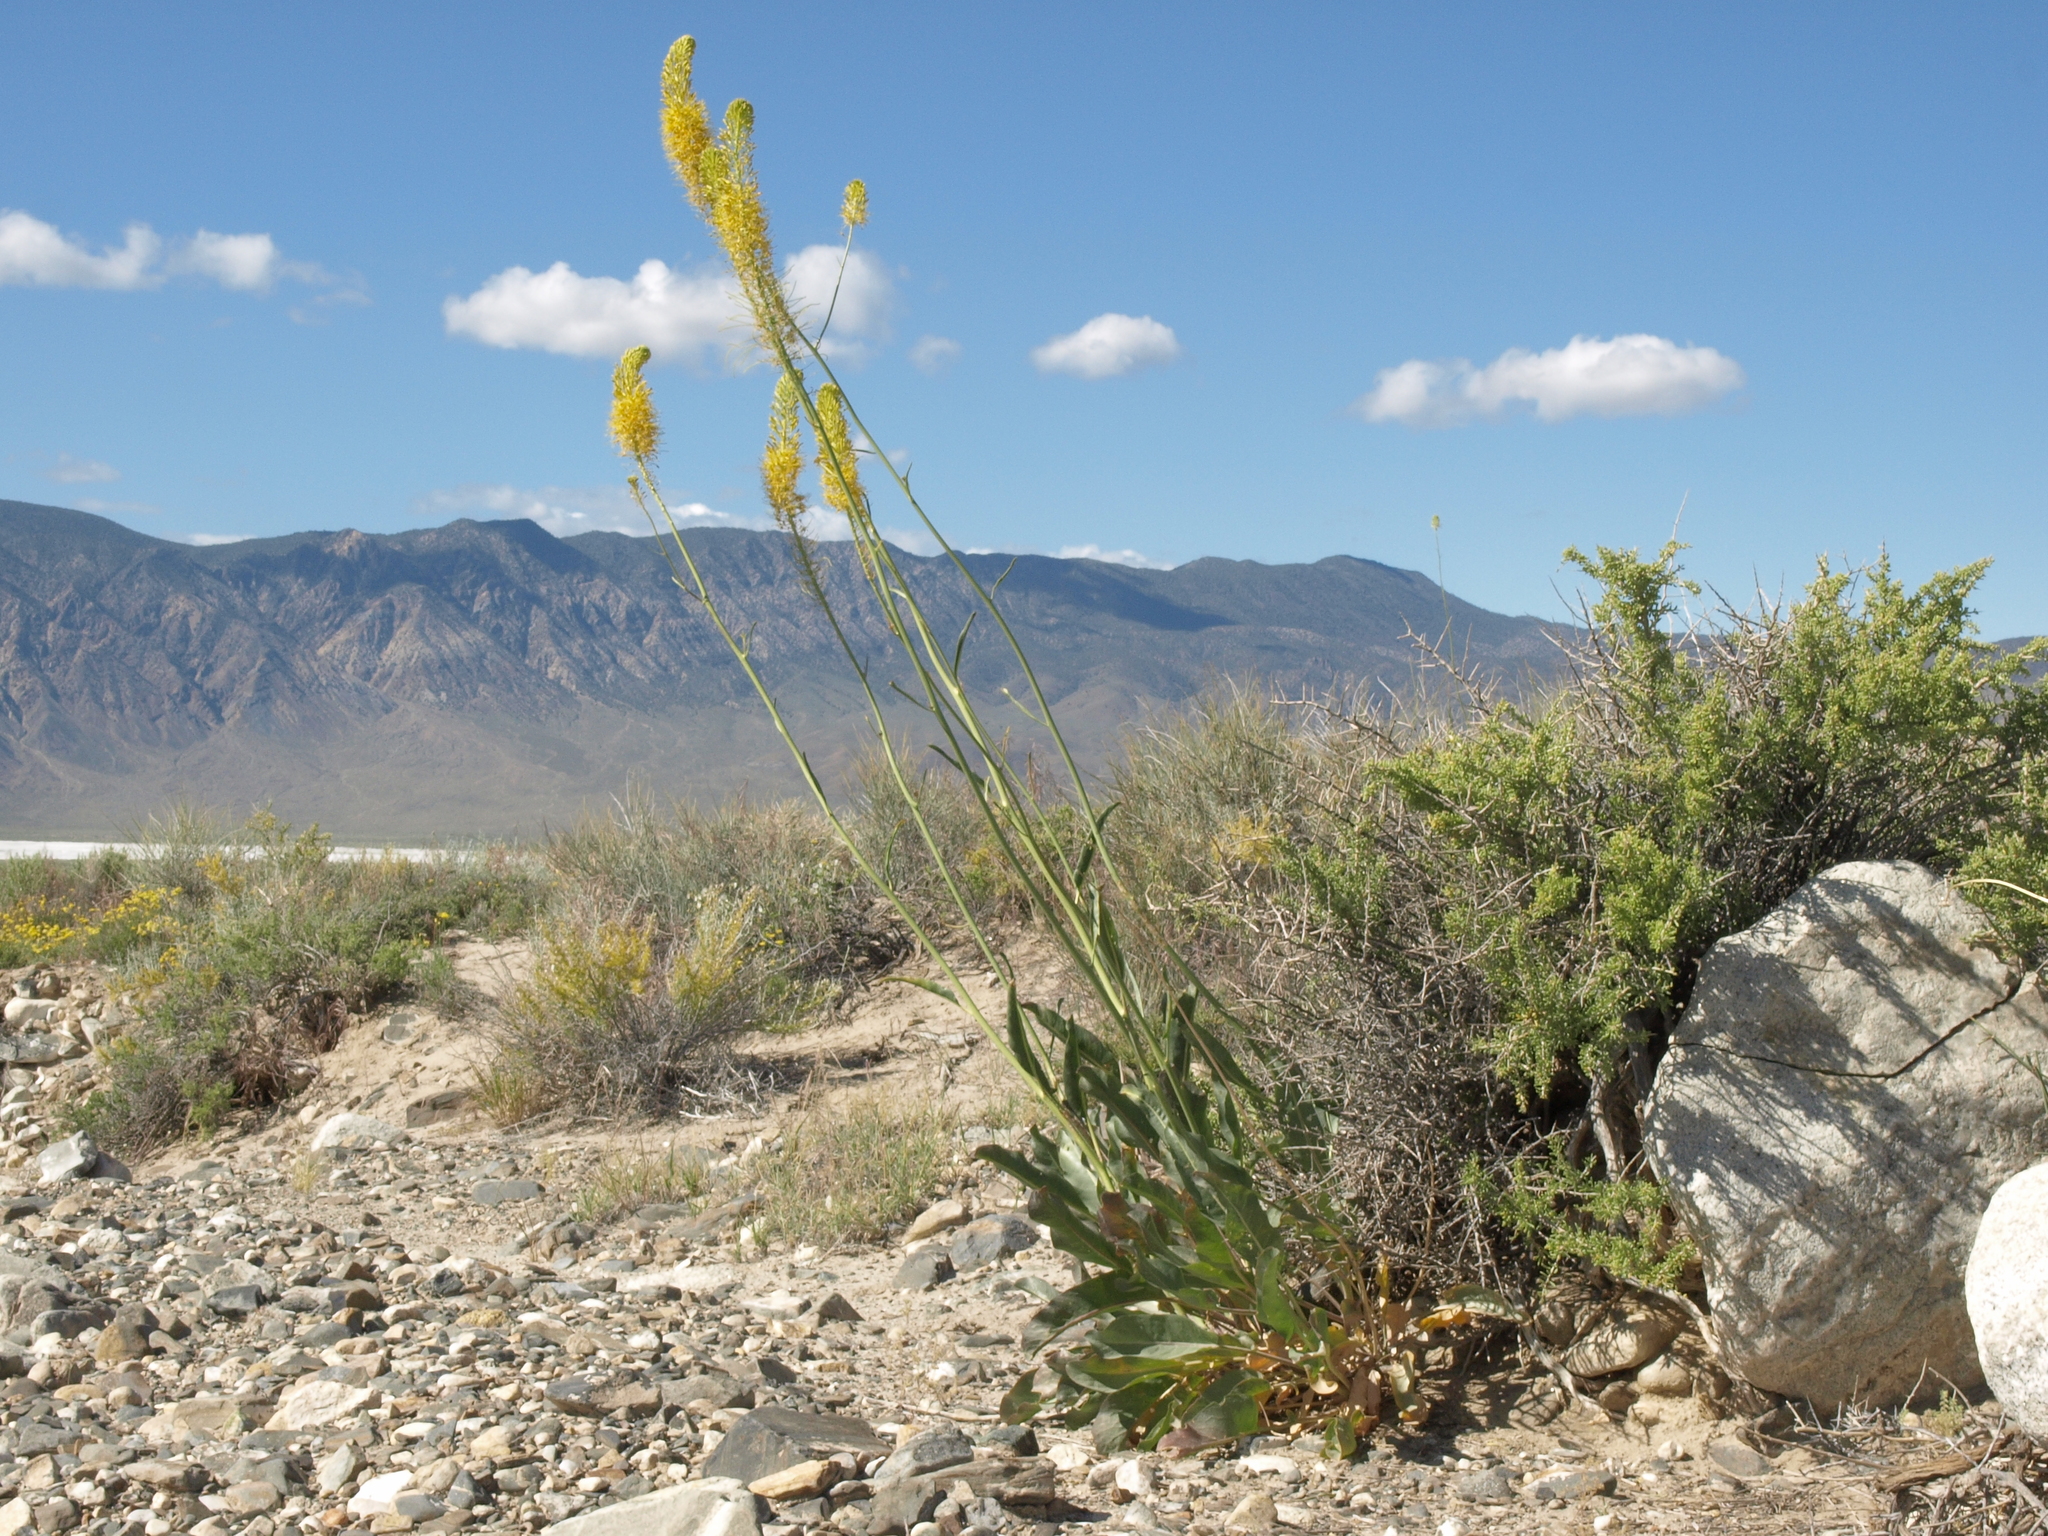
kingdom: Plantae
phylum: Tracheophyta
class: Magnoliopsida
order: Brassicales
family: Brassicaceae
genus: Stanleya
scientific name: Stanleya elata
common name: Panamint prince's plume
